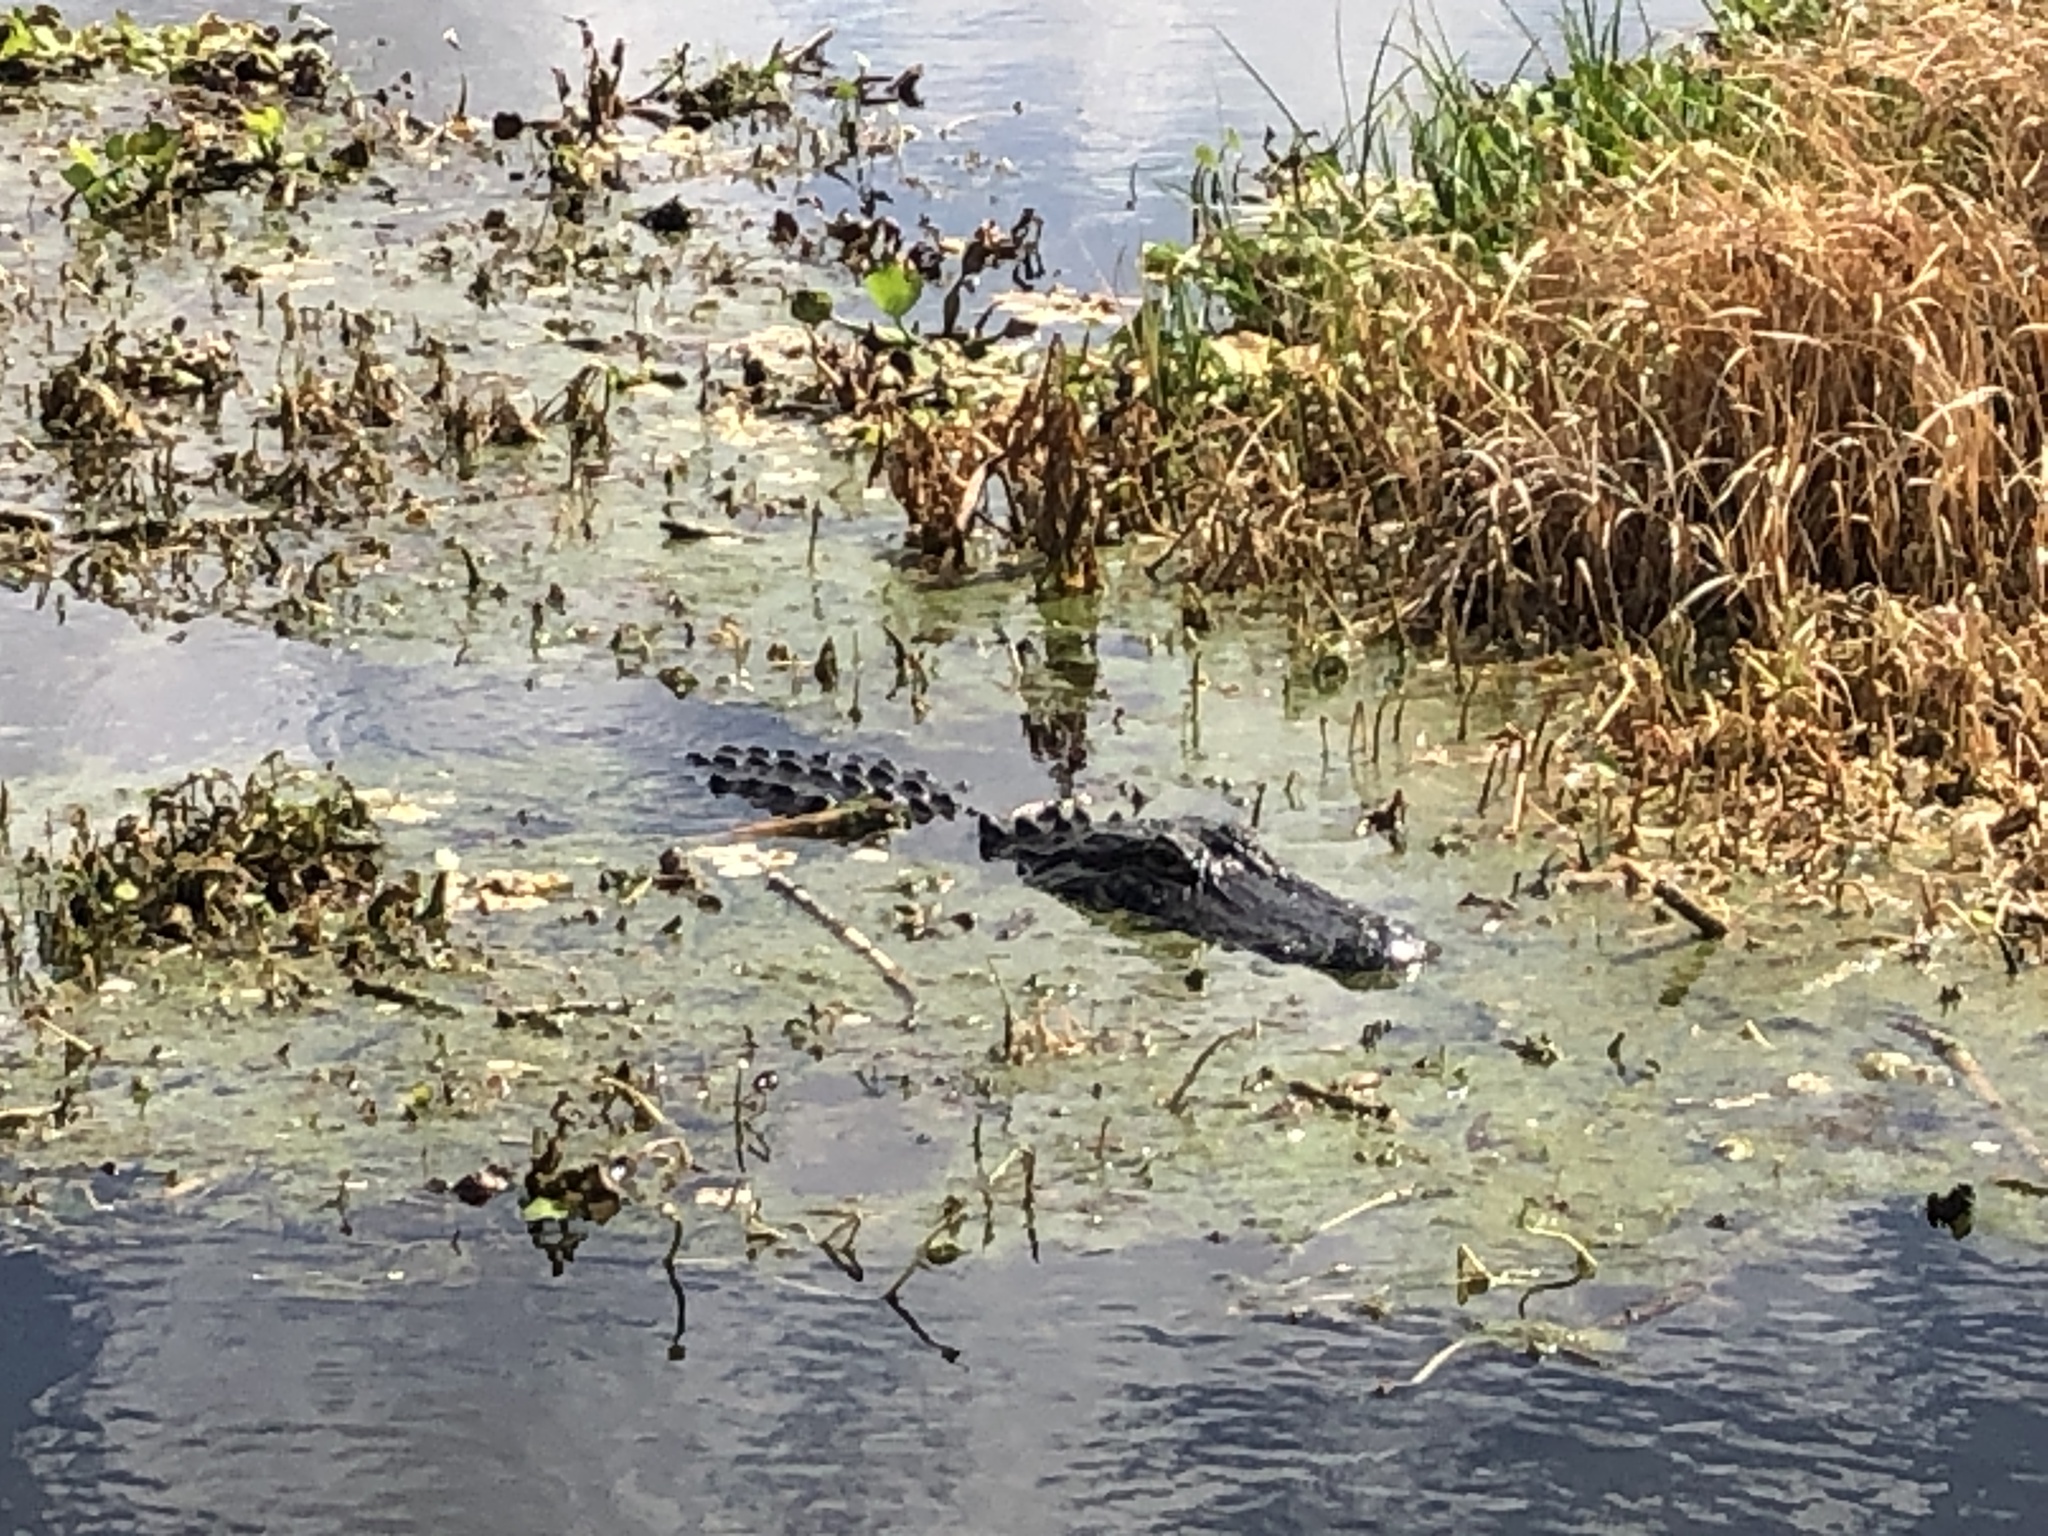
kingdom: Animalia
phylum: Chordata
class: Crocodylia
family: Alligatoridae
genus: Alligator
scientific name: Alligator mississippiensis
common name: American alligator
